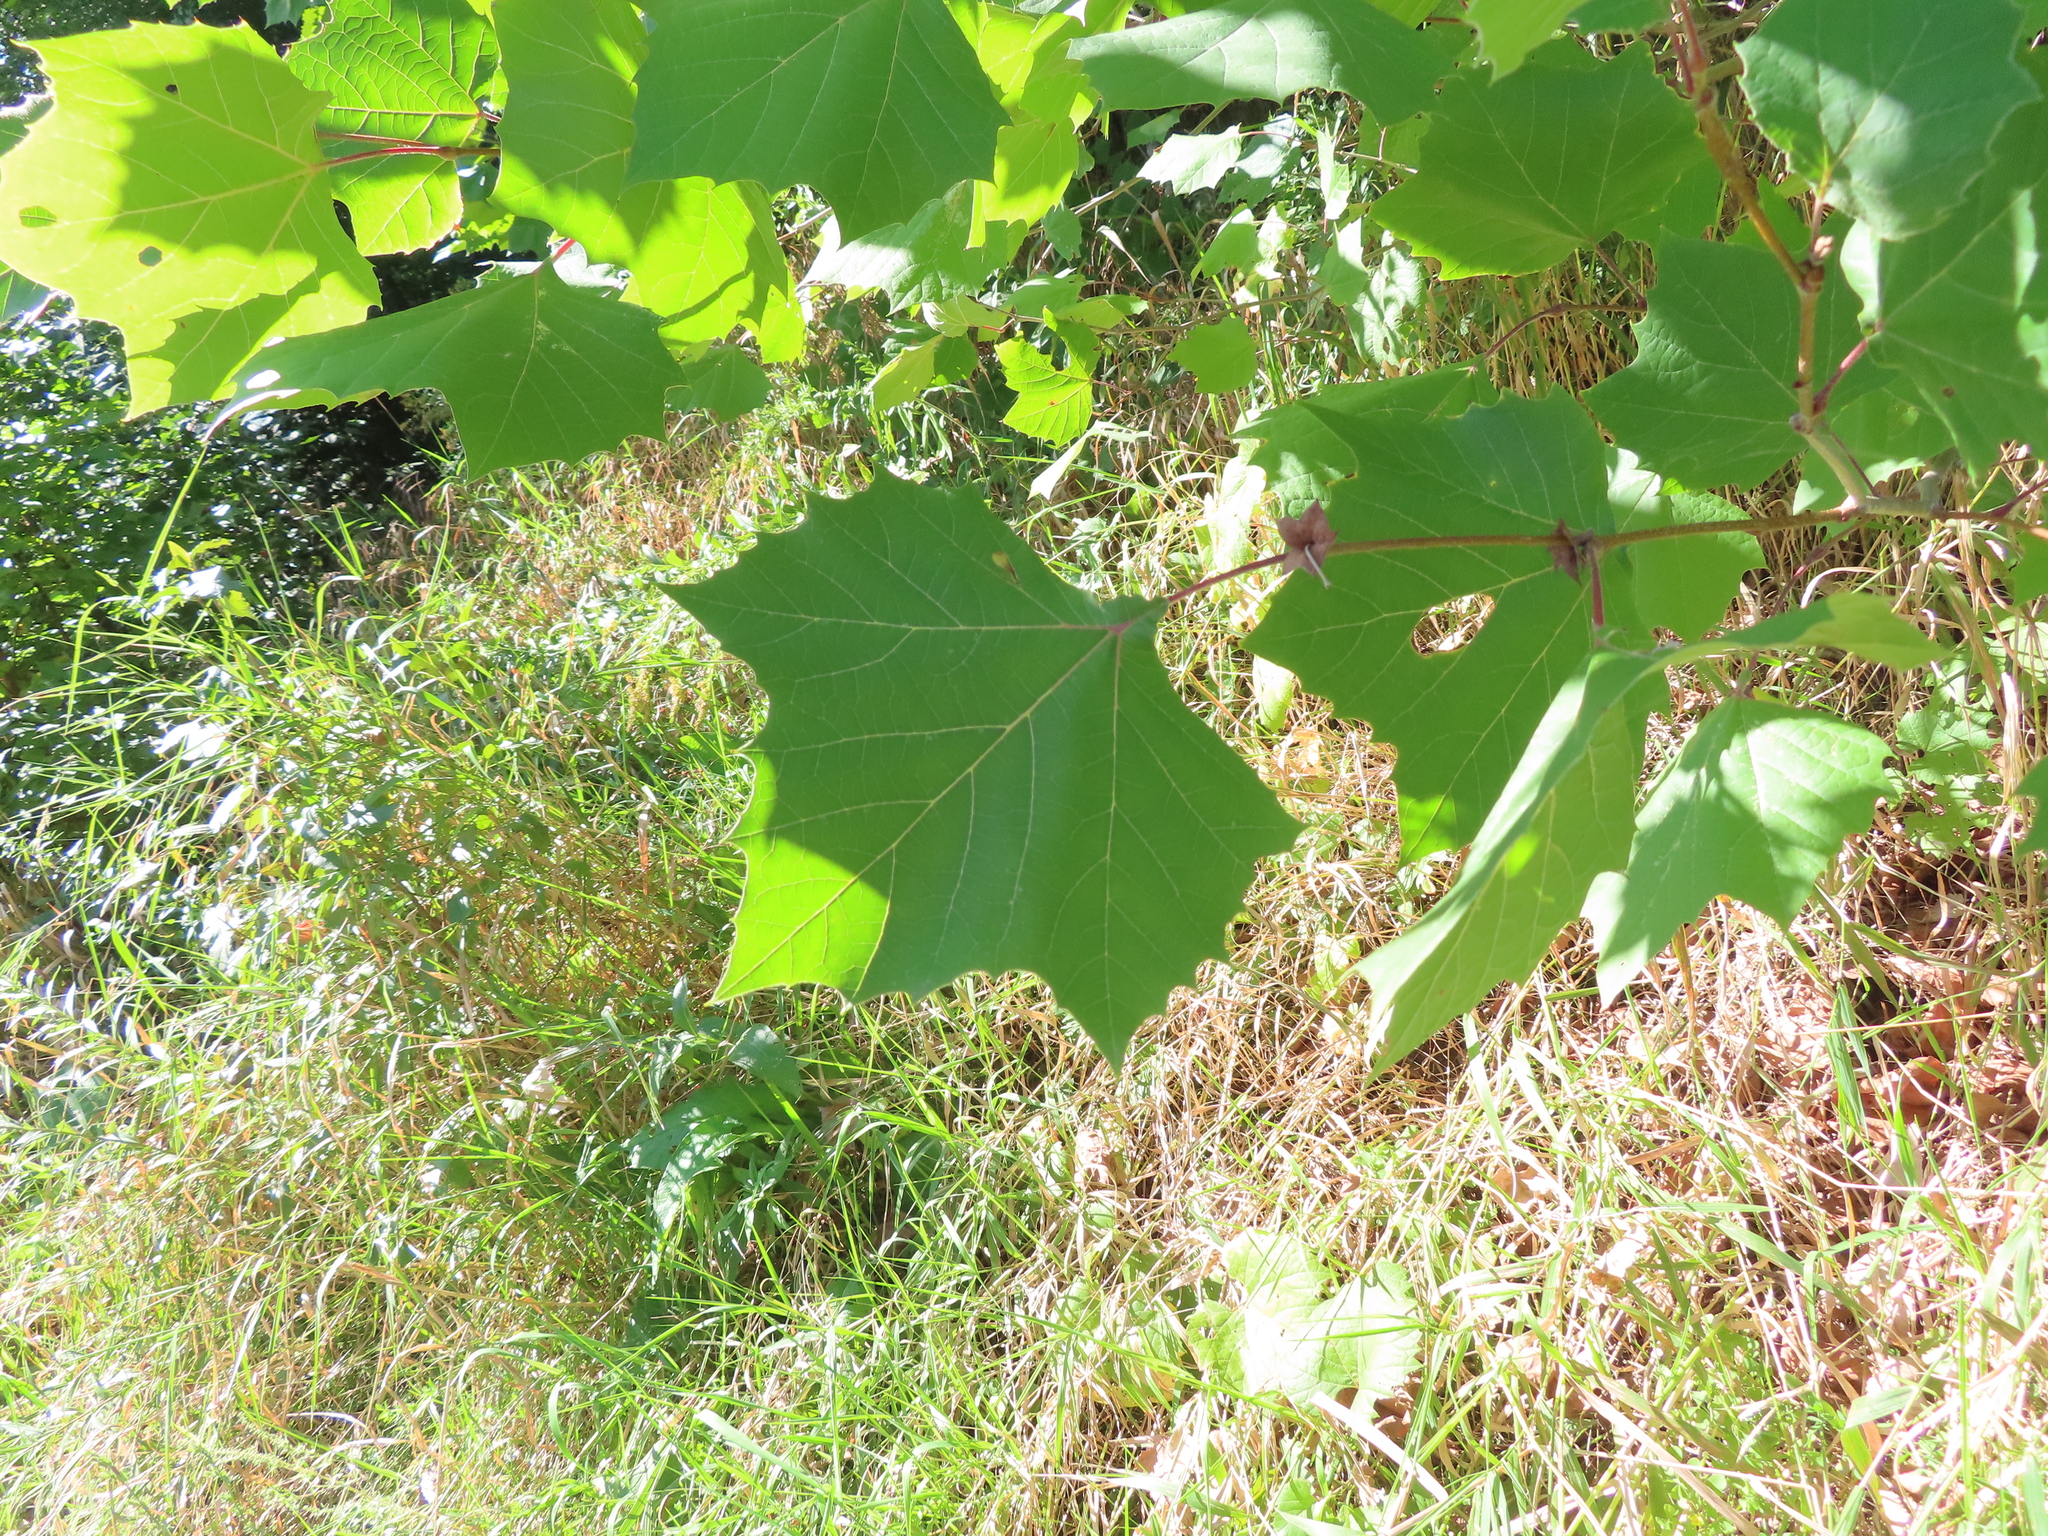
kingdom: Plantae
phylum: Tracheophyta
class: Magnoliopsida
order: Proteales
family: Platanaceae
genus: Platanus
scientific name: Platanus occidentalis
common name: American sycamore
